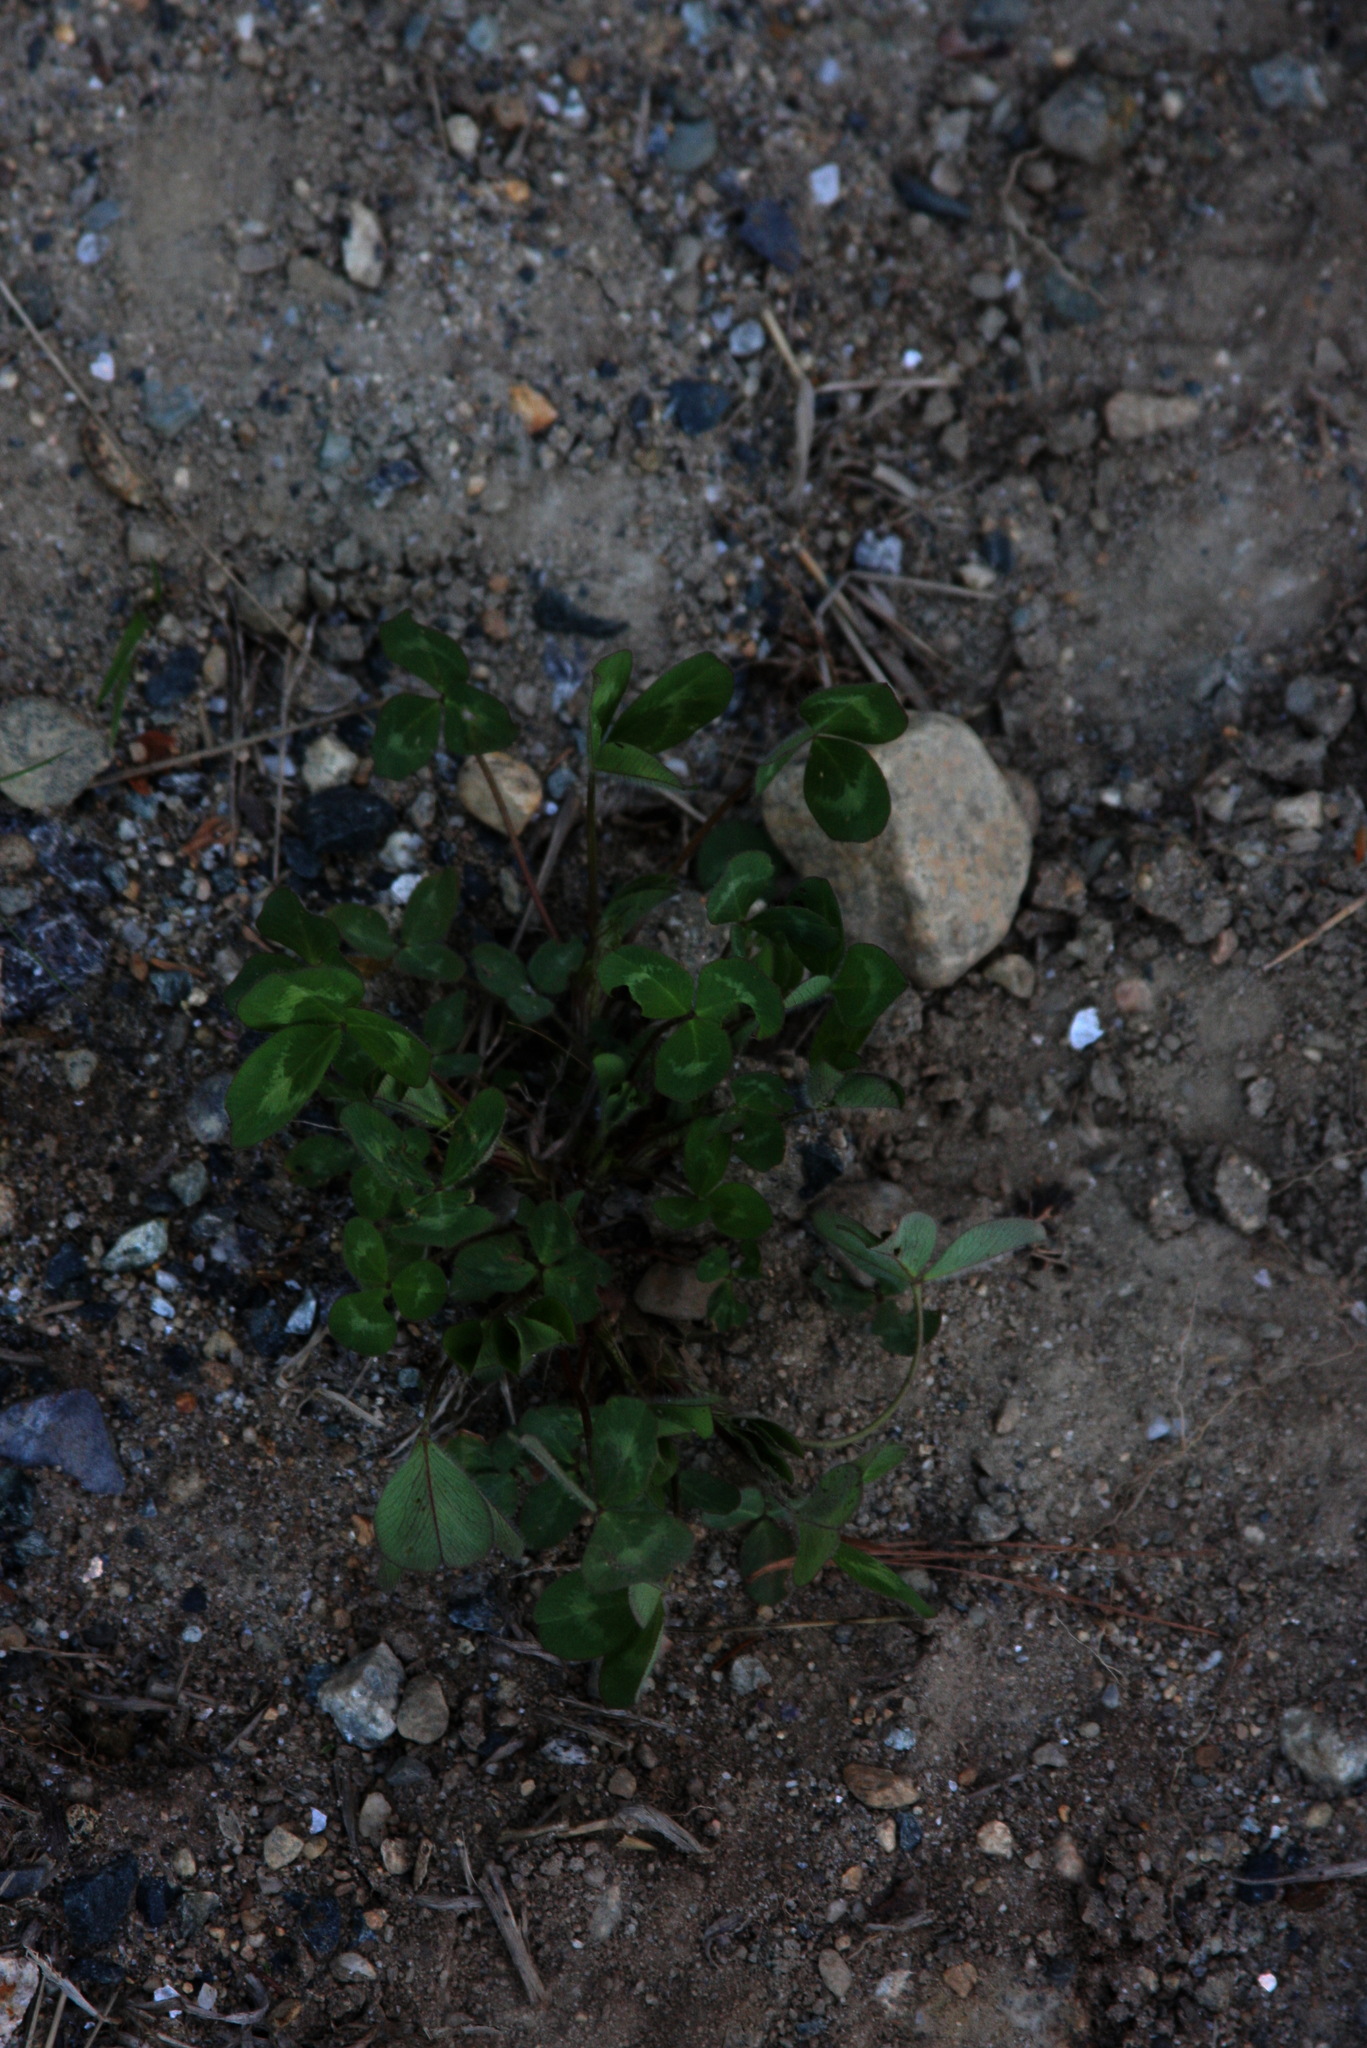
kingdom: Plantae
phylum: Tracheophyta
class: Magnoliopsida
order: Fabales
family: Fabaceae
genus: Trifolium
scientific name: Trifolium pratense
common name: Red clover
